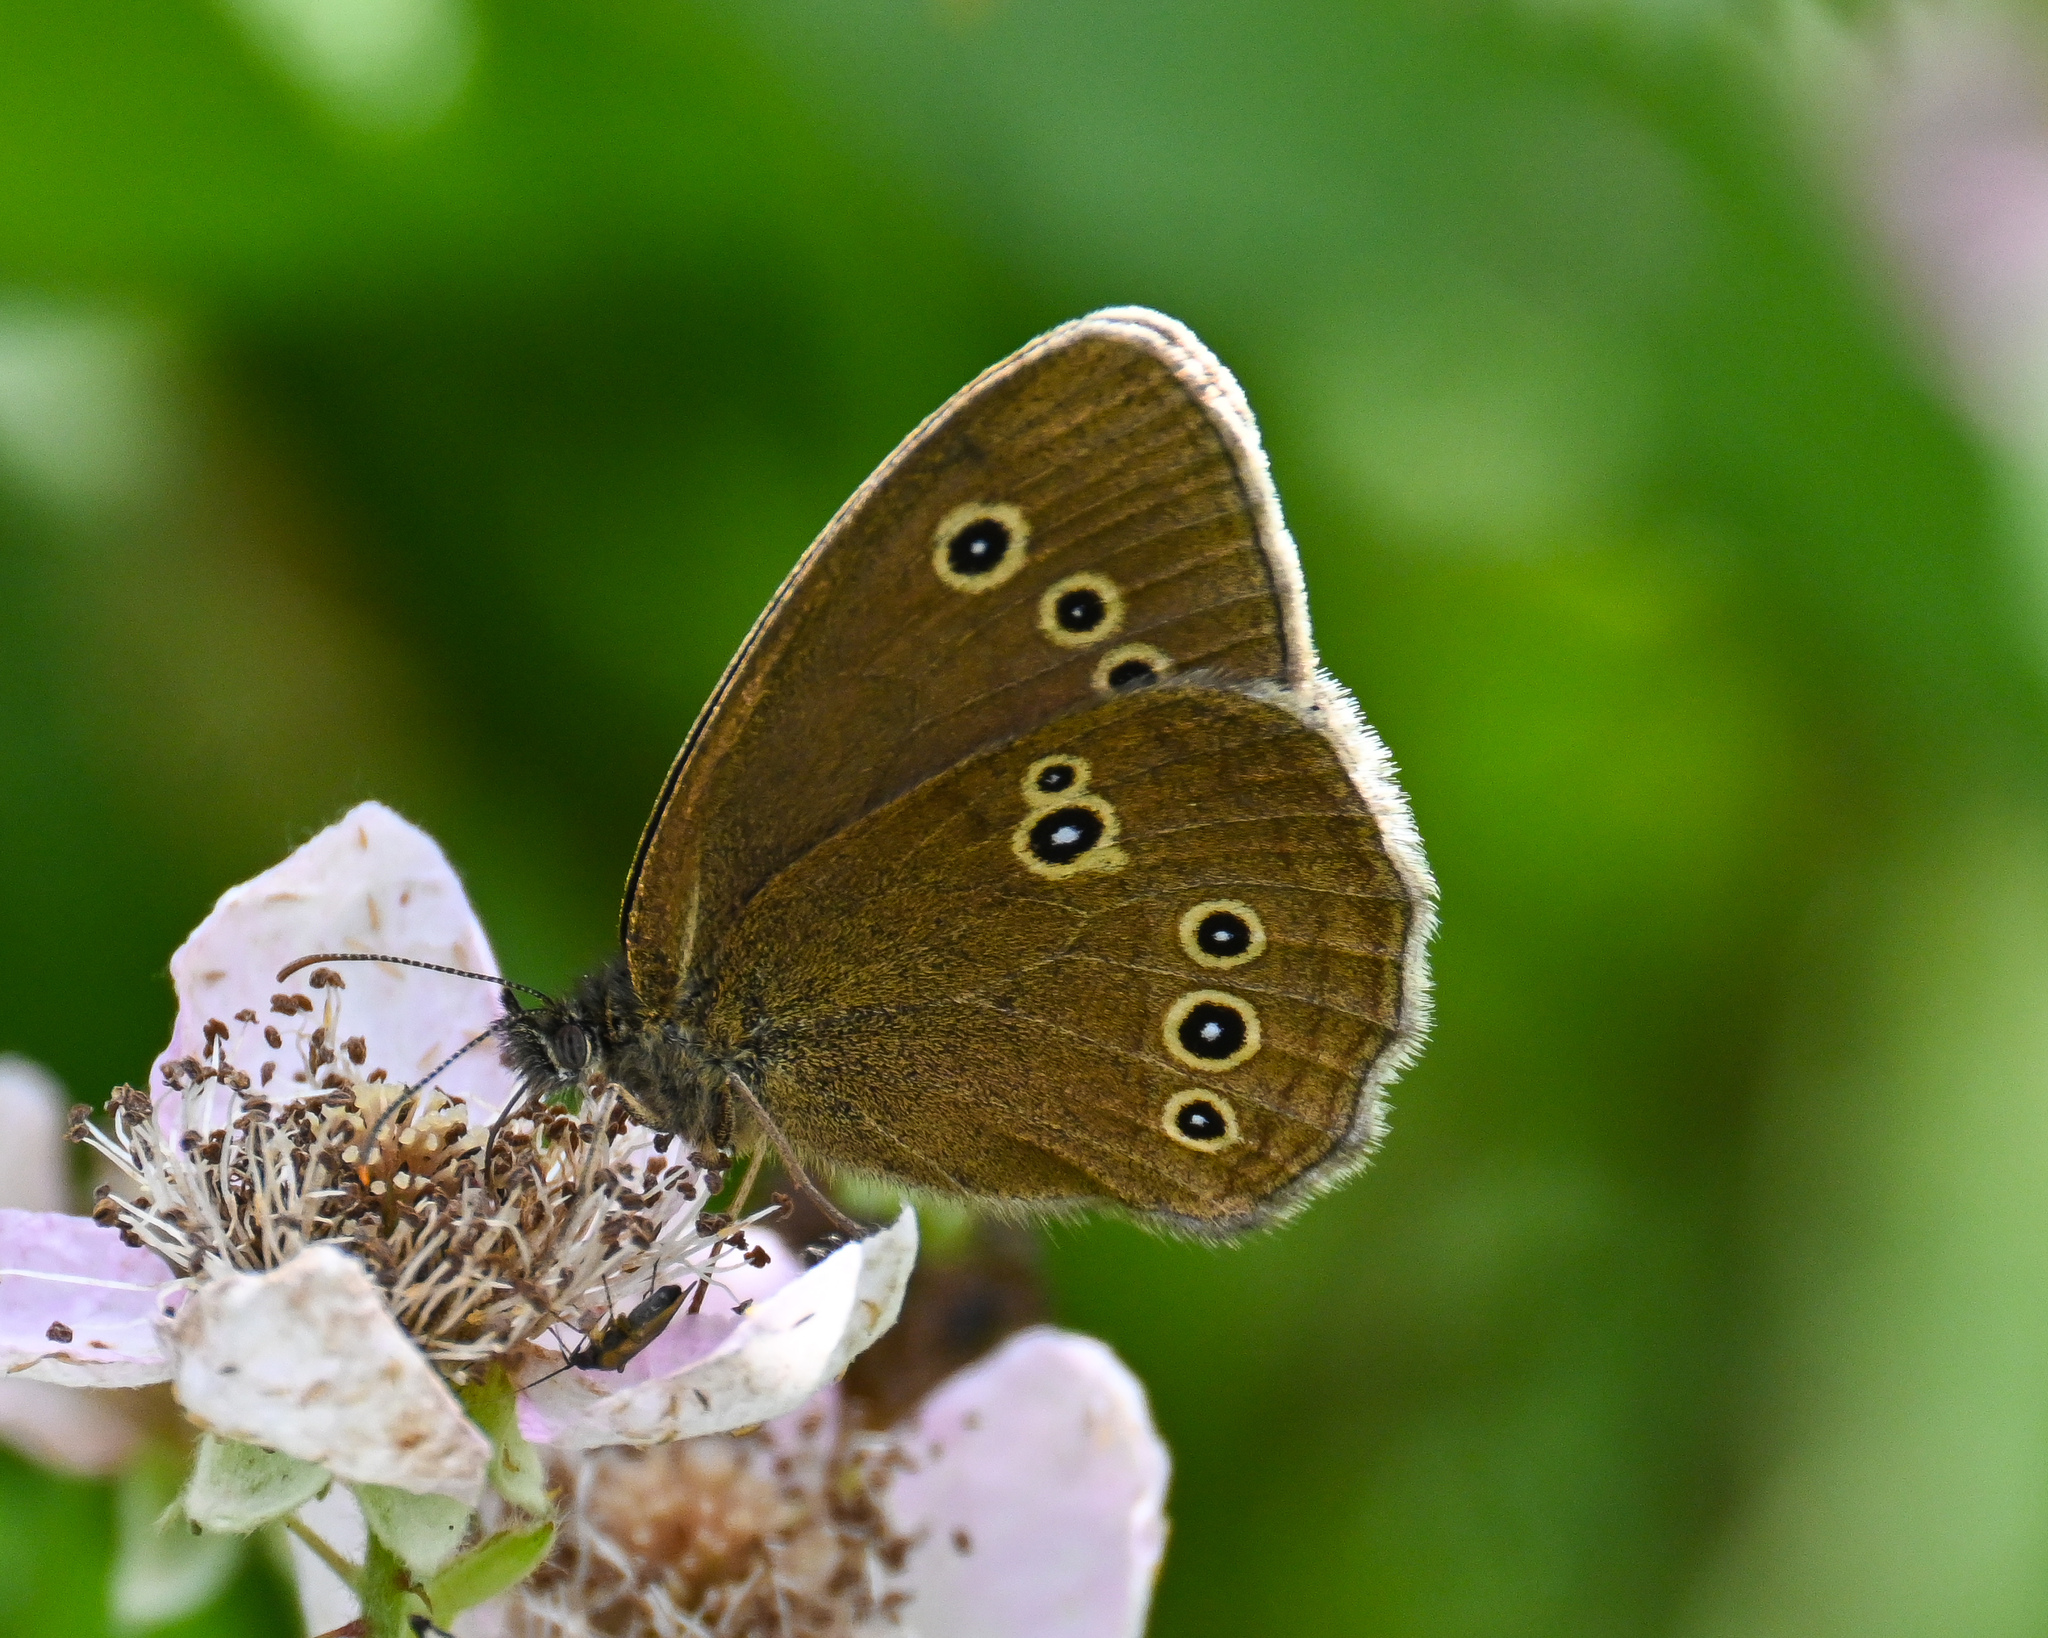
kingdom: Animalia
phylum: Arthropoda
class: Insecta
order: Lepidoptera
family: Nymphalidae
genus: Aphantopus
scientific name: Aphantopus hyperantus
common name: Ringlet
